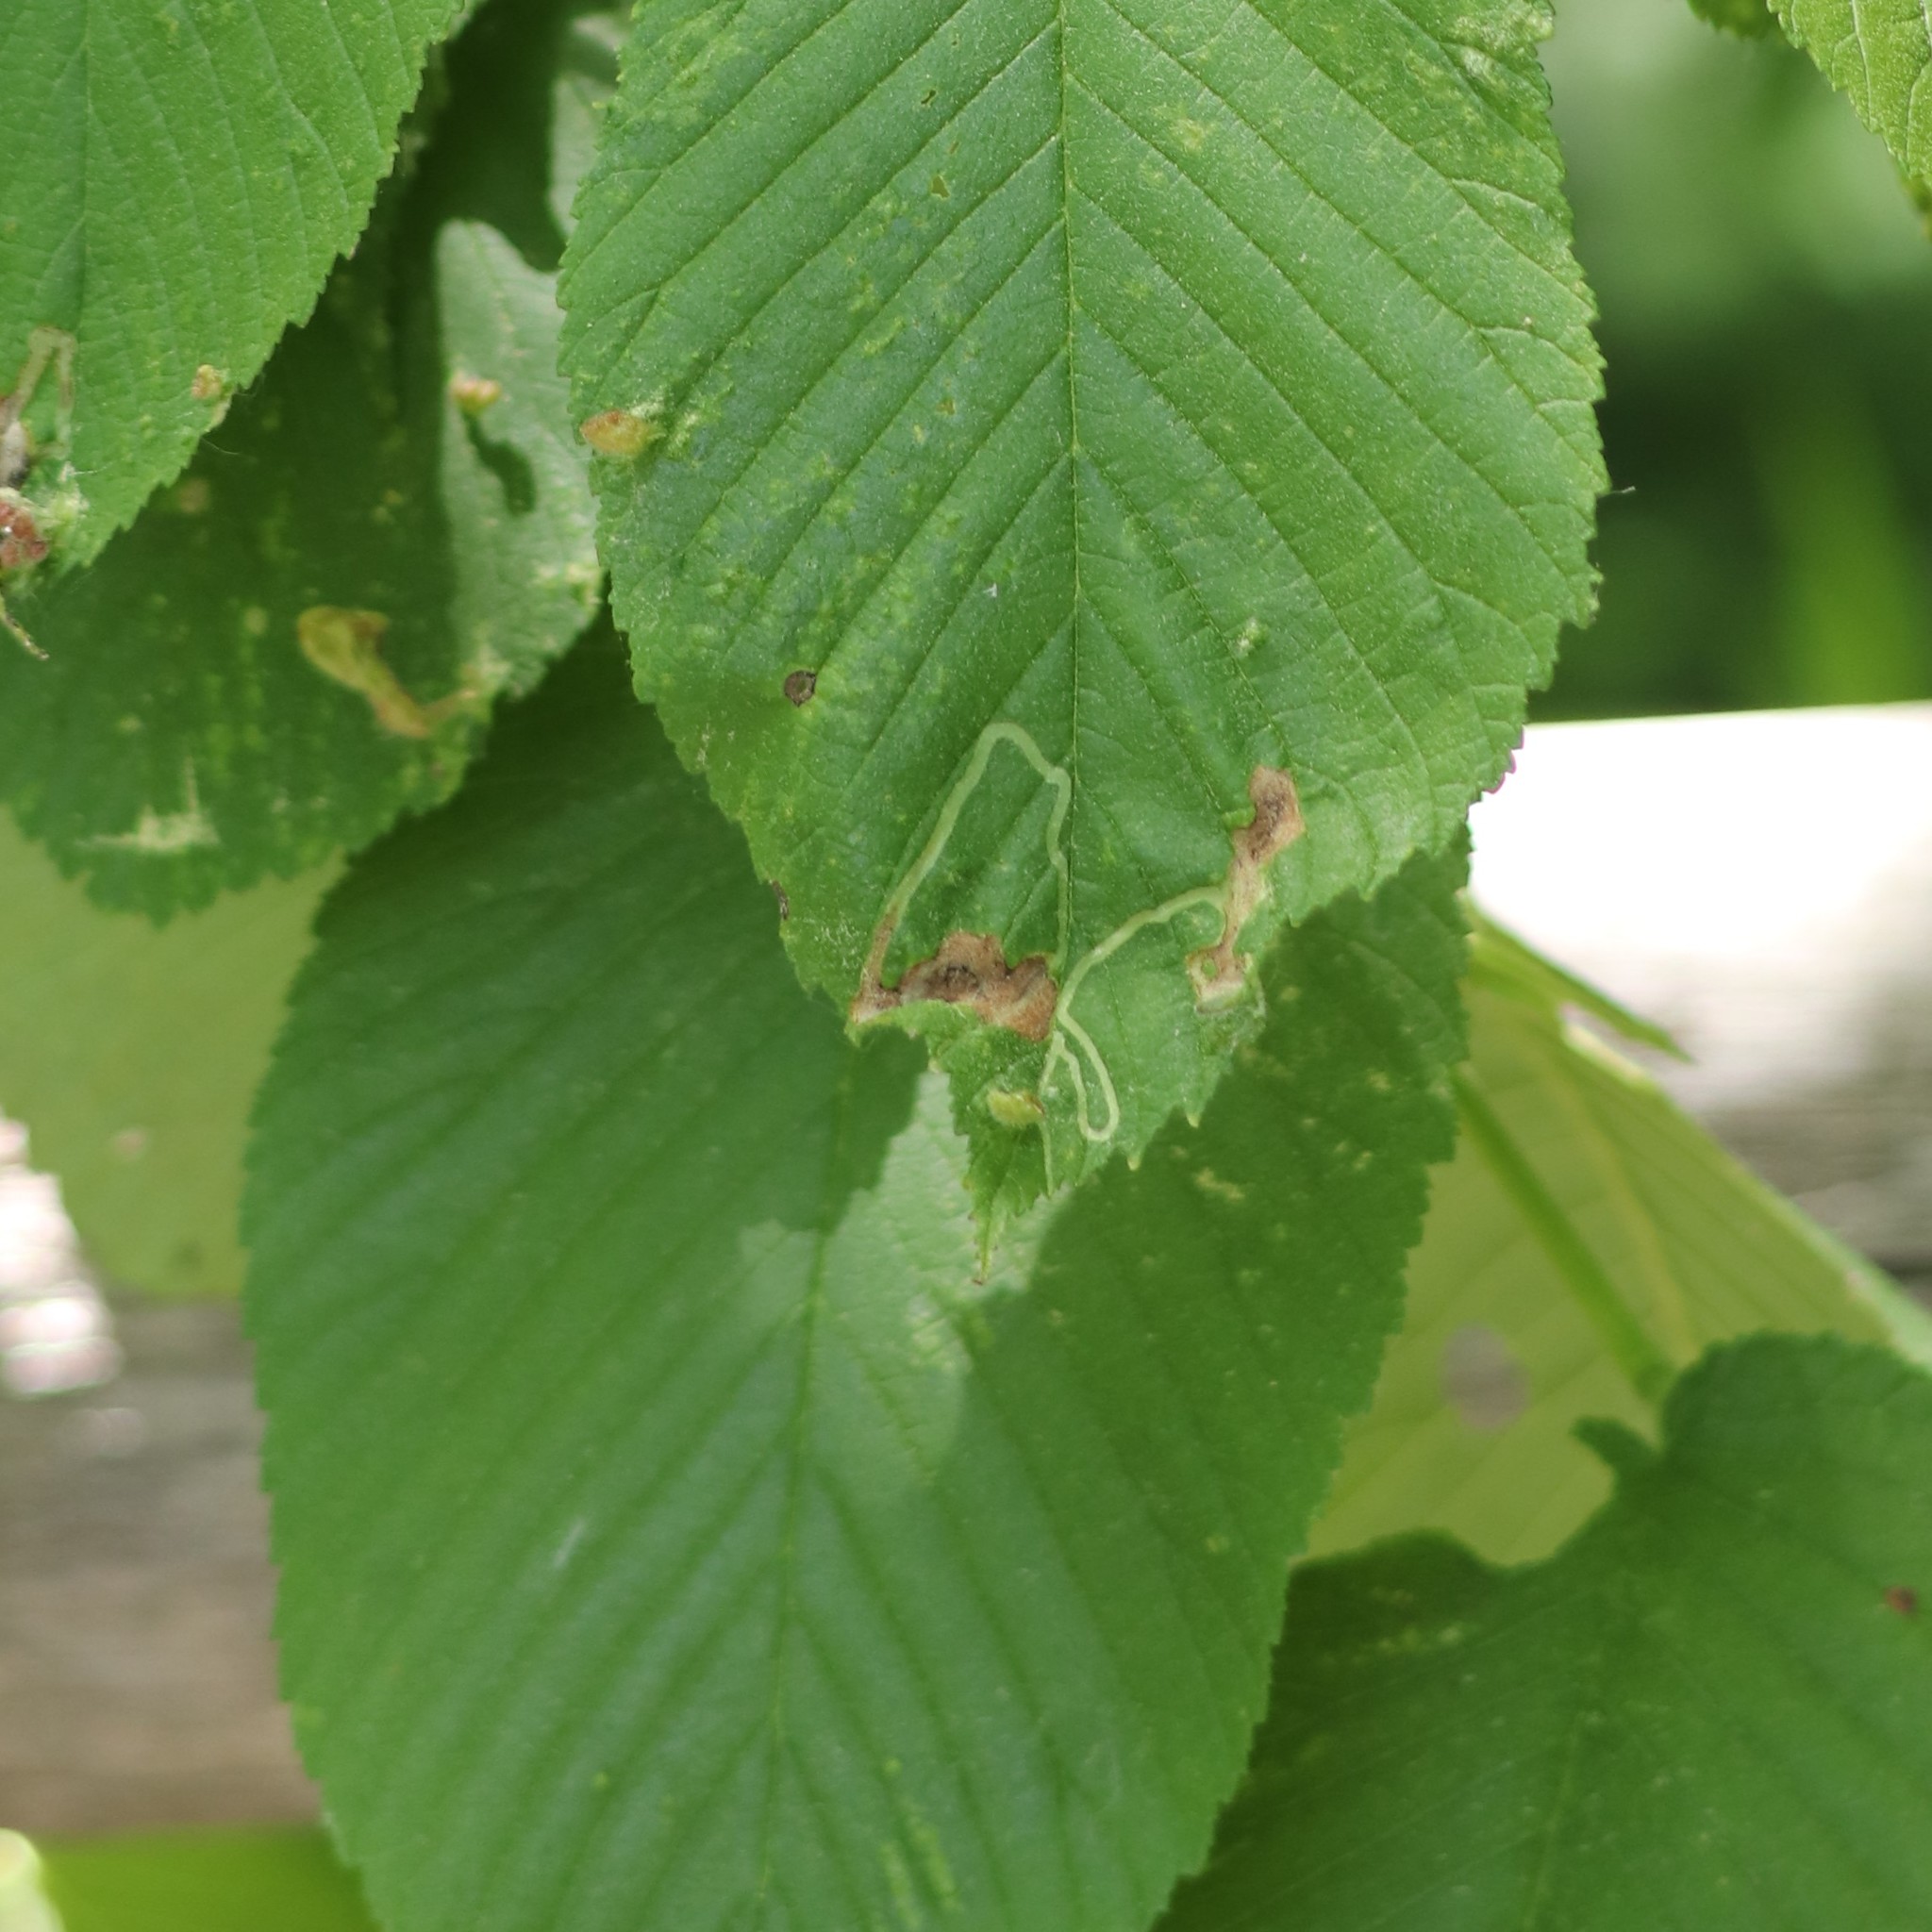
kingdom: Animalia
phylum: Arthropoda
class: Insecta
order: Diptera
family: Agromyzidae
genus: Agromyza
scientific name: Agromyza aristata
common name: Elm agromyzid leafminer
